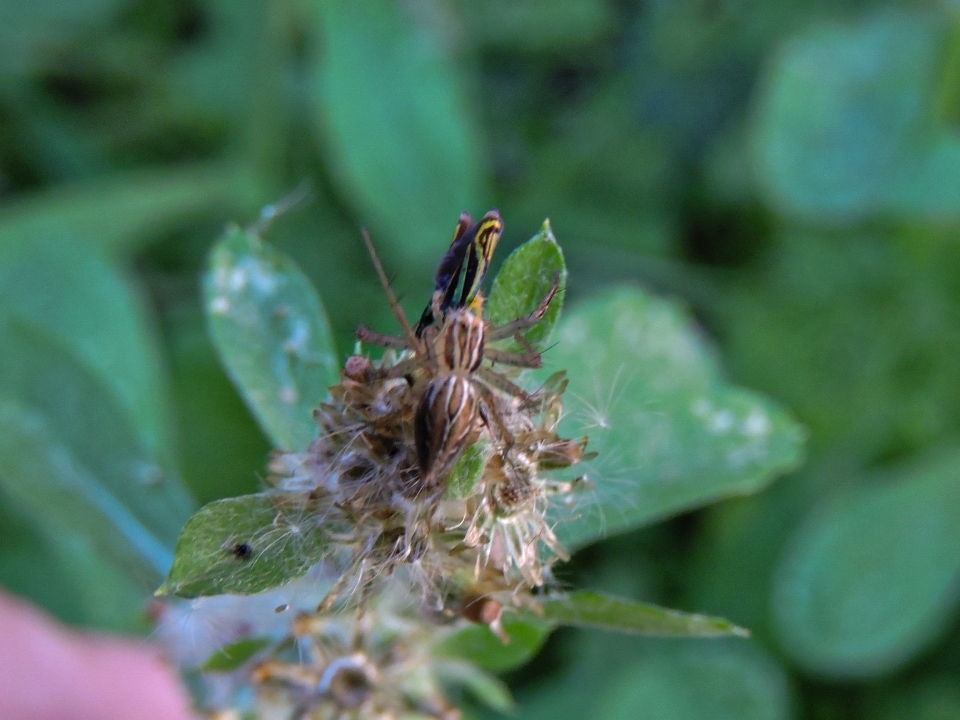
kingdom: Animalia
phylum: Arthropoda
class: Arachnida
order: Araneae
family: Oxyopidae
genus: Oxyopes
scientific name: Oxyopes salticus
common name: Lynx spiders
